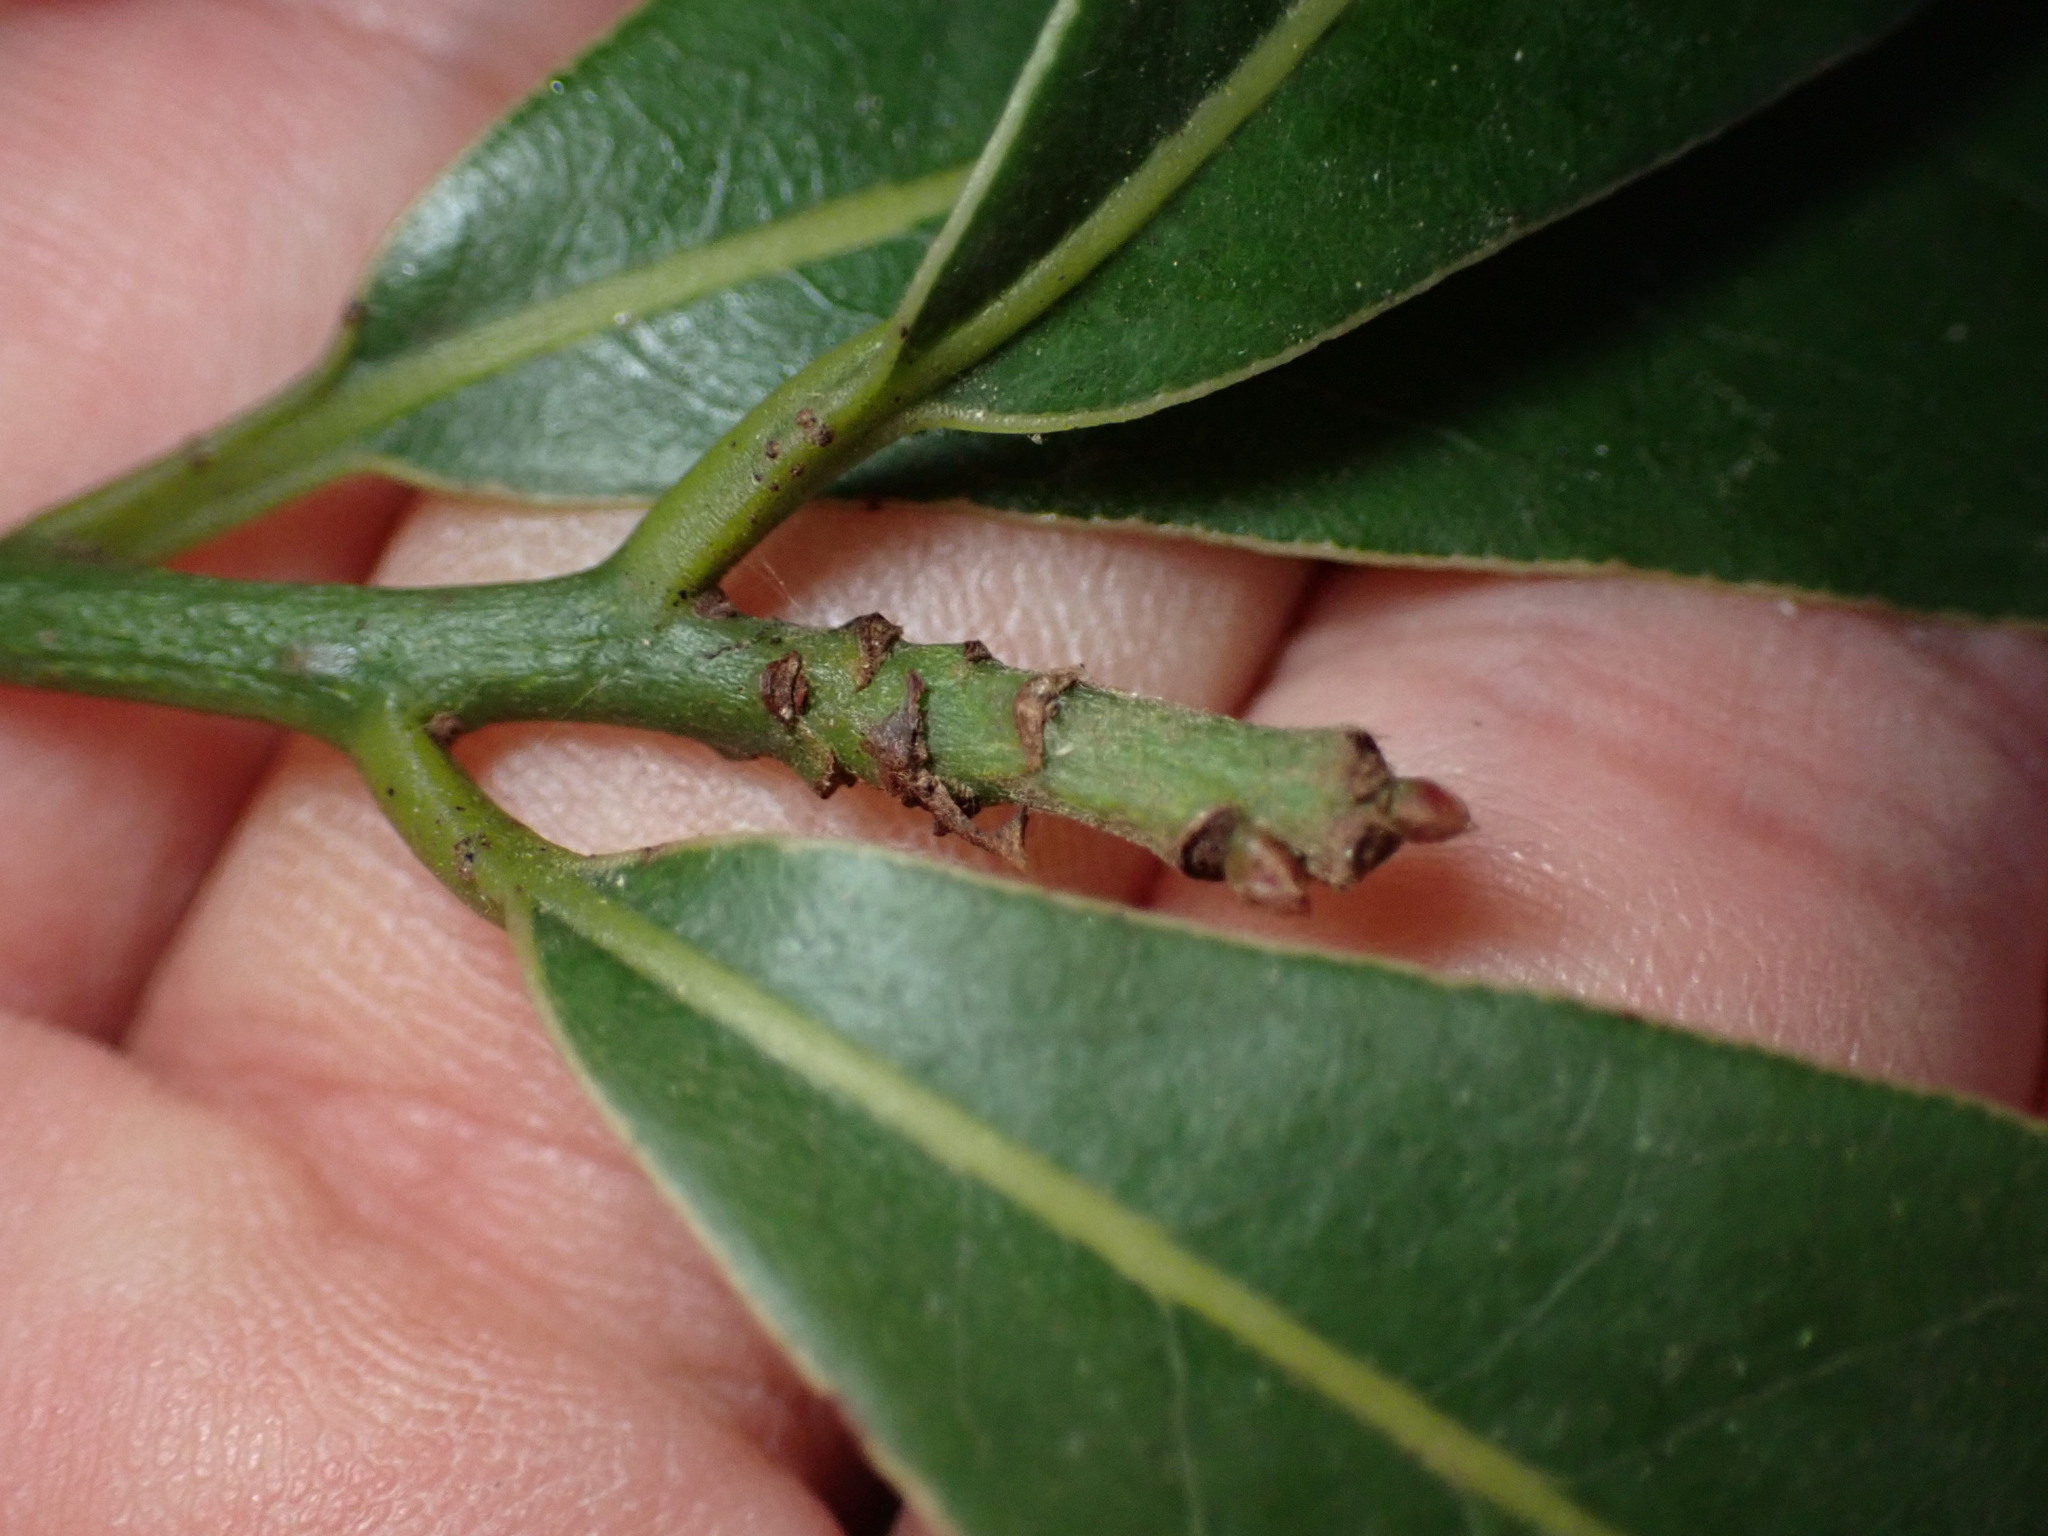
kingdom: Plantae
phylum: Tracheophyta
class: Magnoliopsida
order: Laurales
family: Lauraceae
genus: Laurus
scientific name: Laurus novocanariensis
